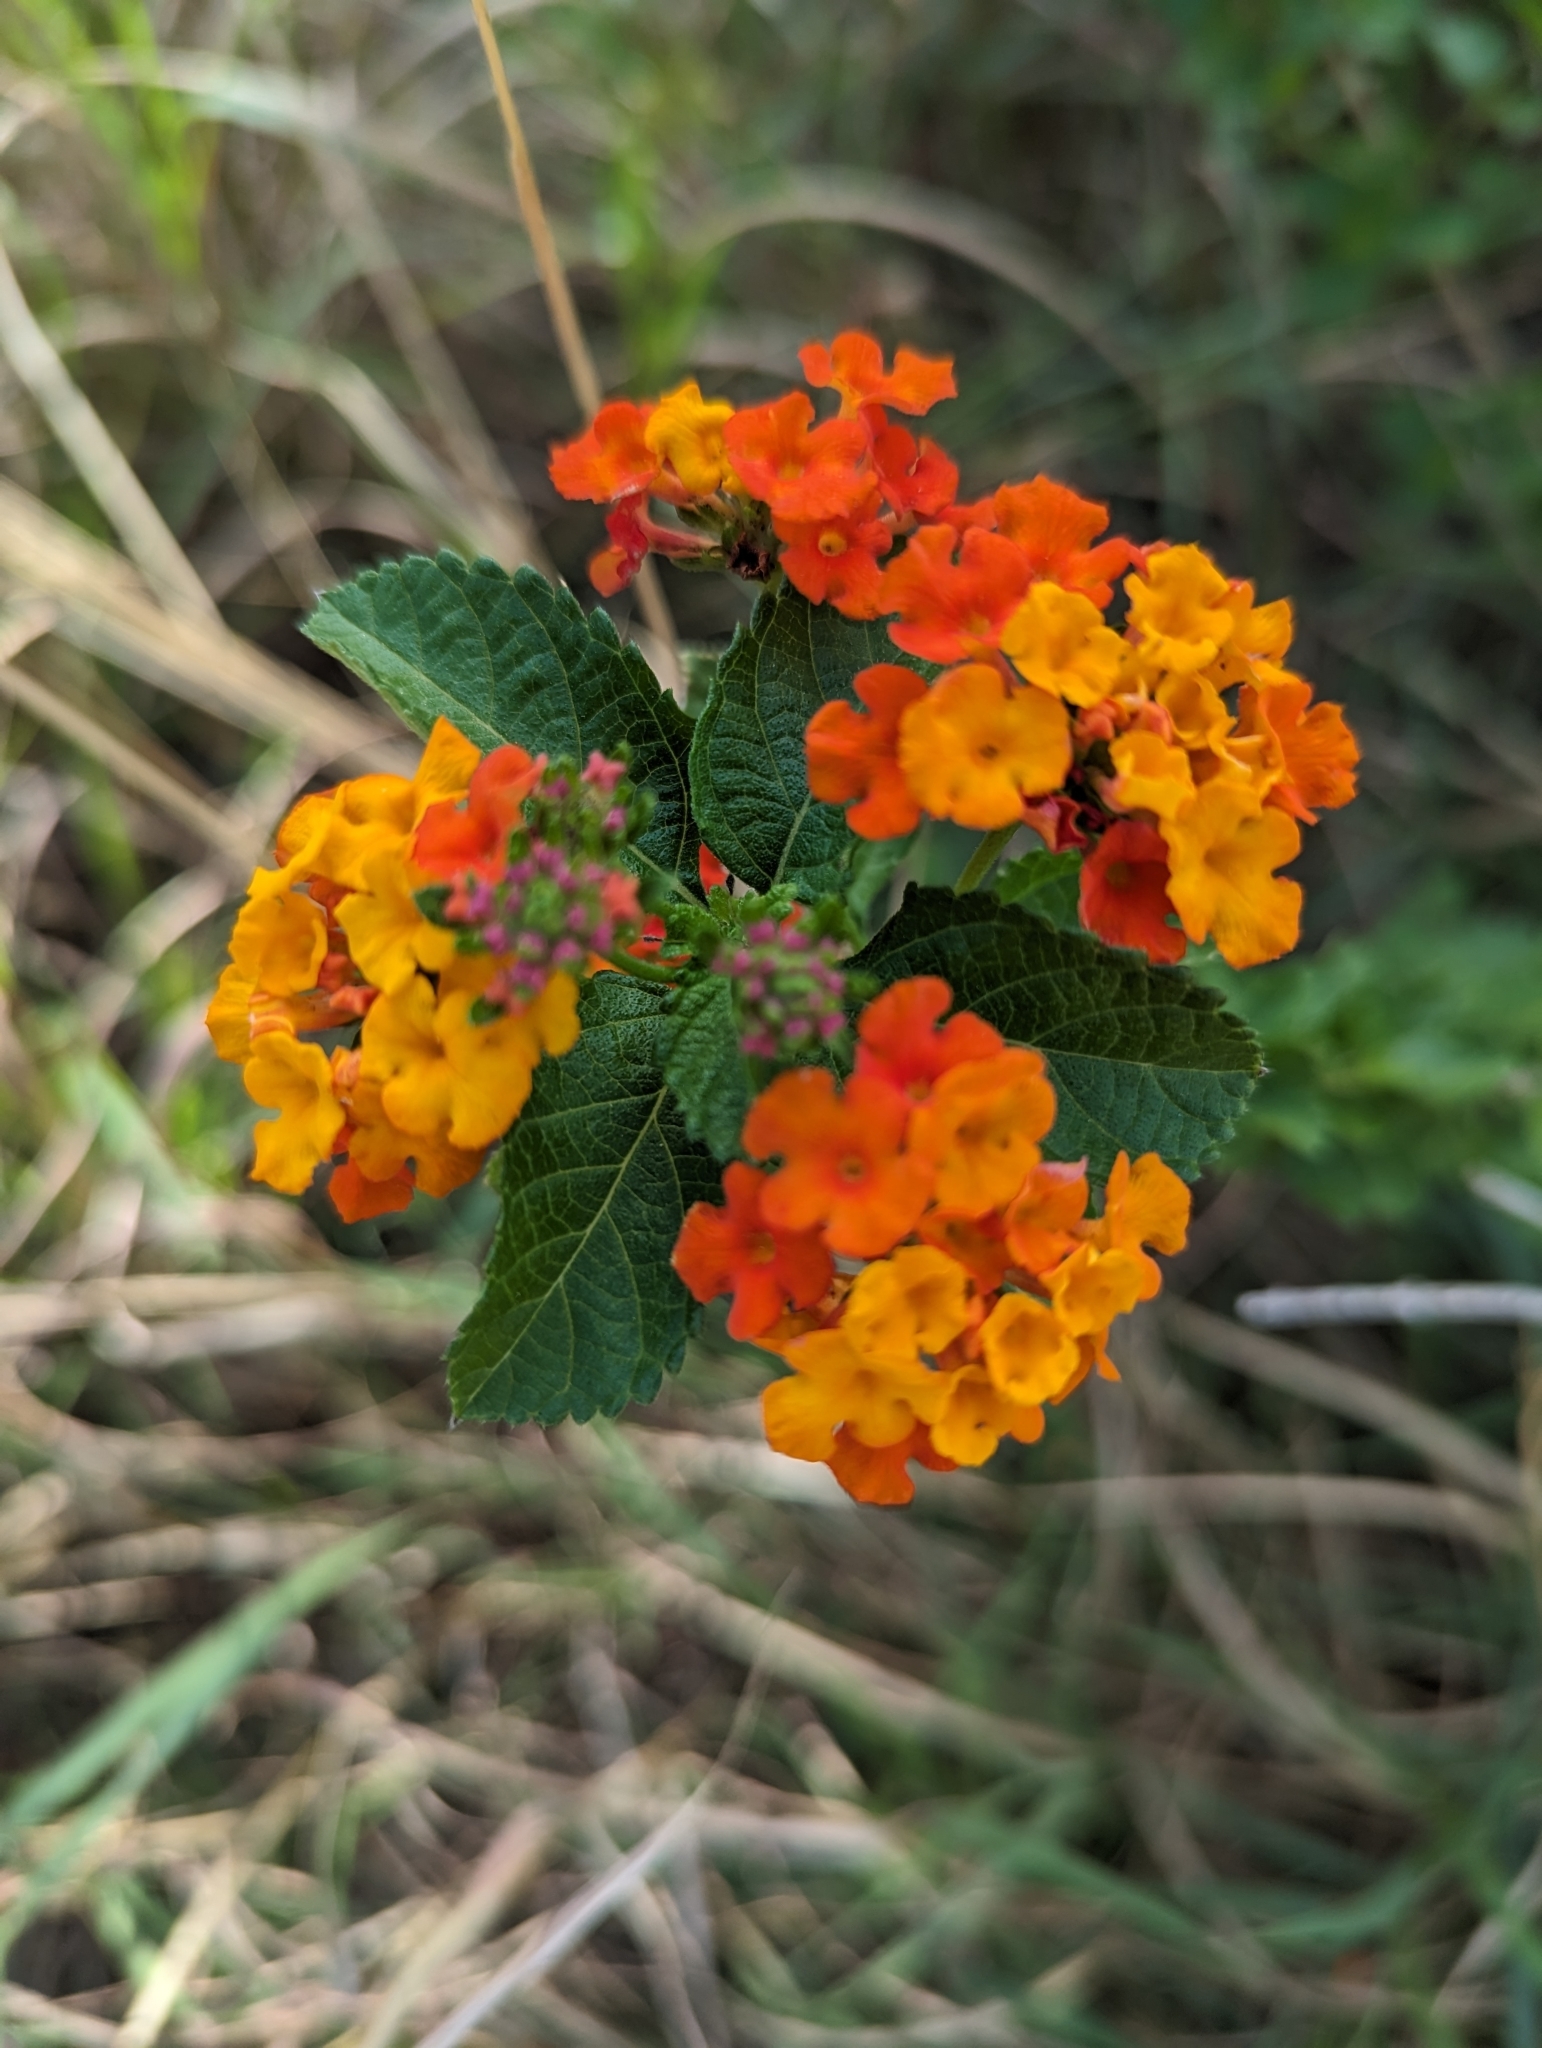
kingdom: Plantae
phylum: Tracheophyta
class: Magnoliopsida
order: Lamiales
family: Verbenaceae
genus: Lantana
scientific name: Lantana urticoides
